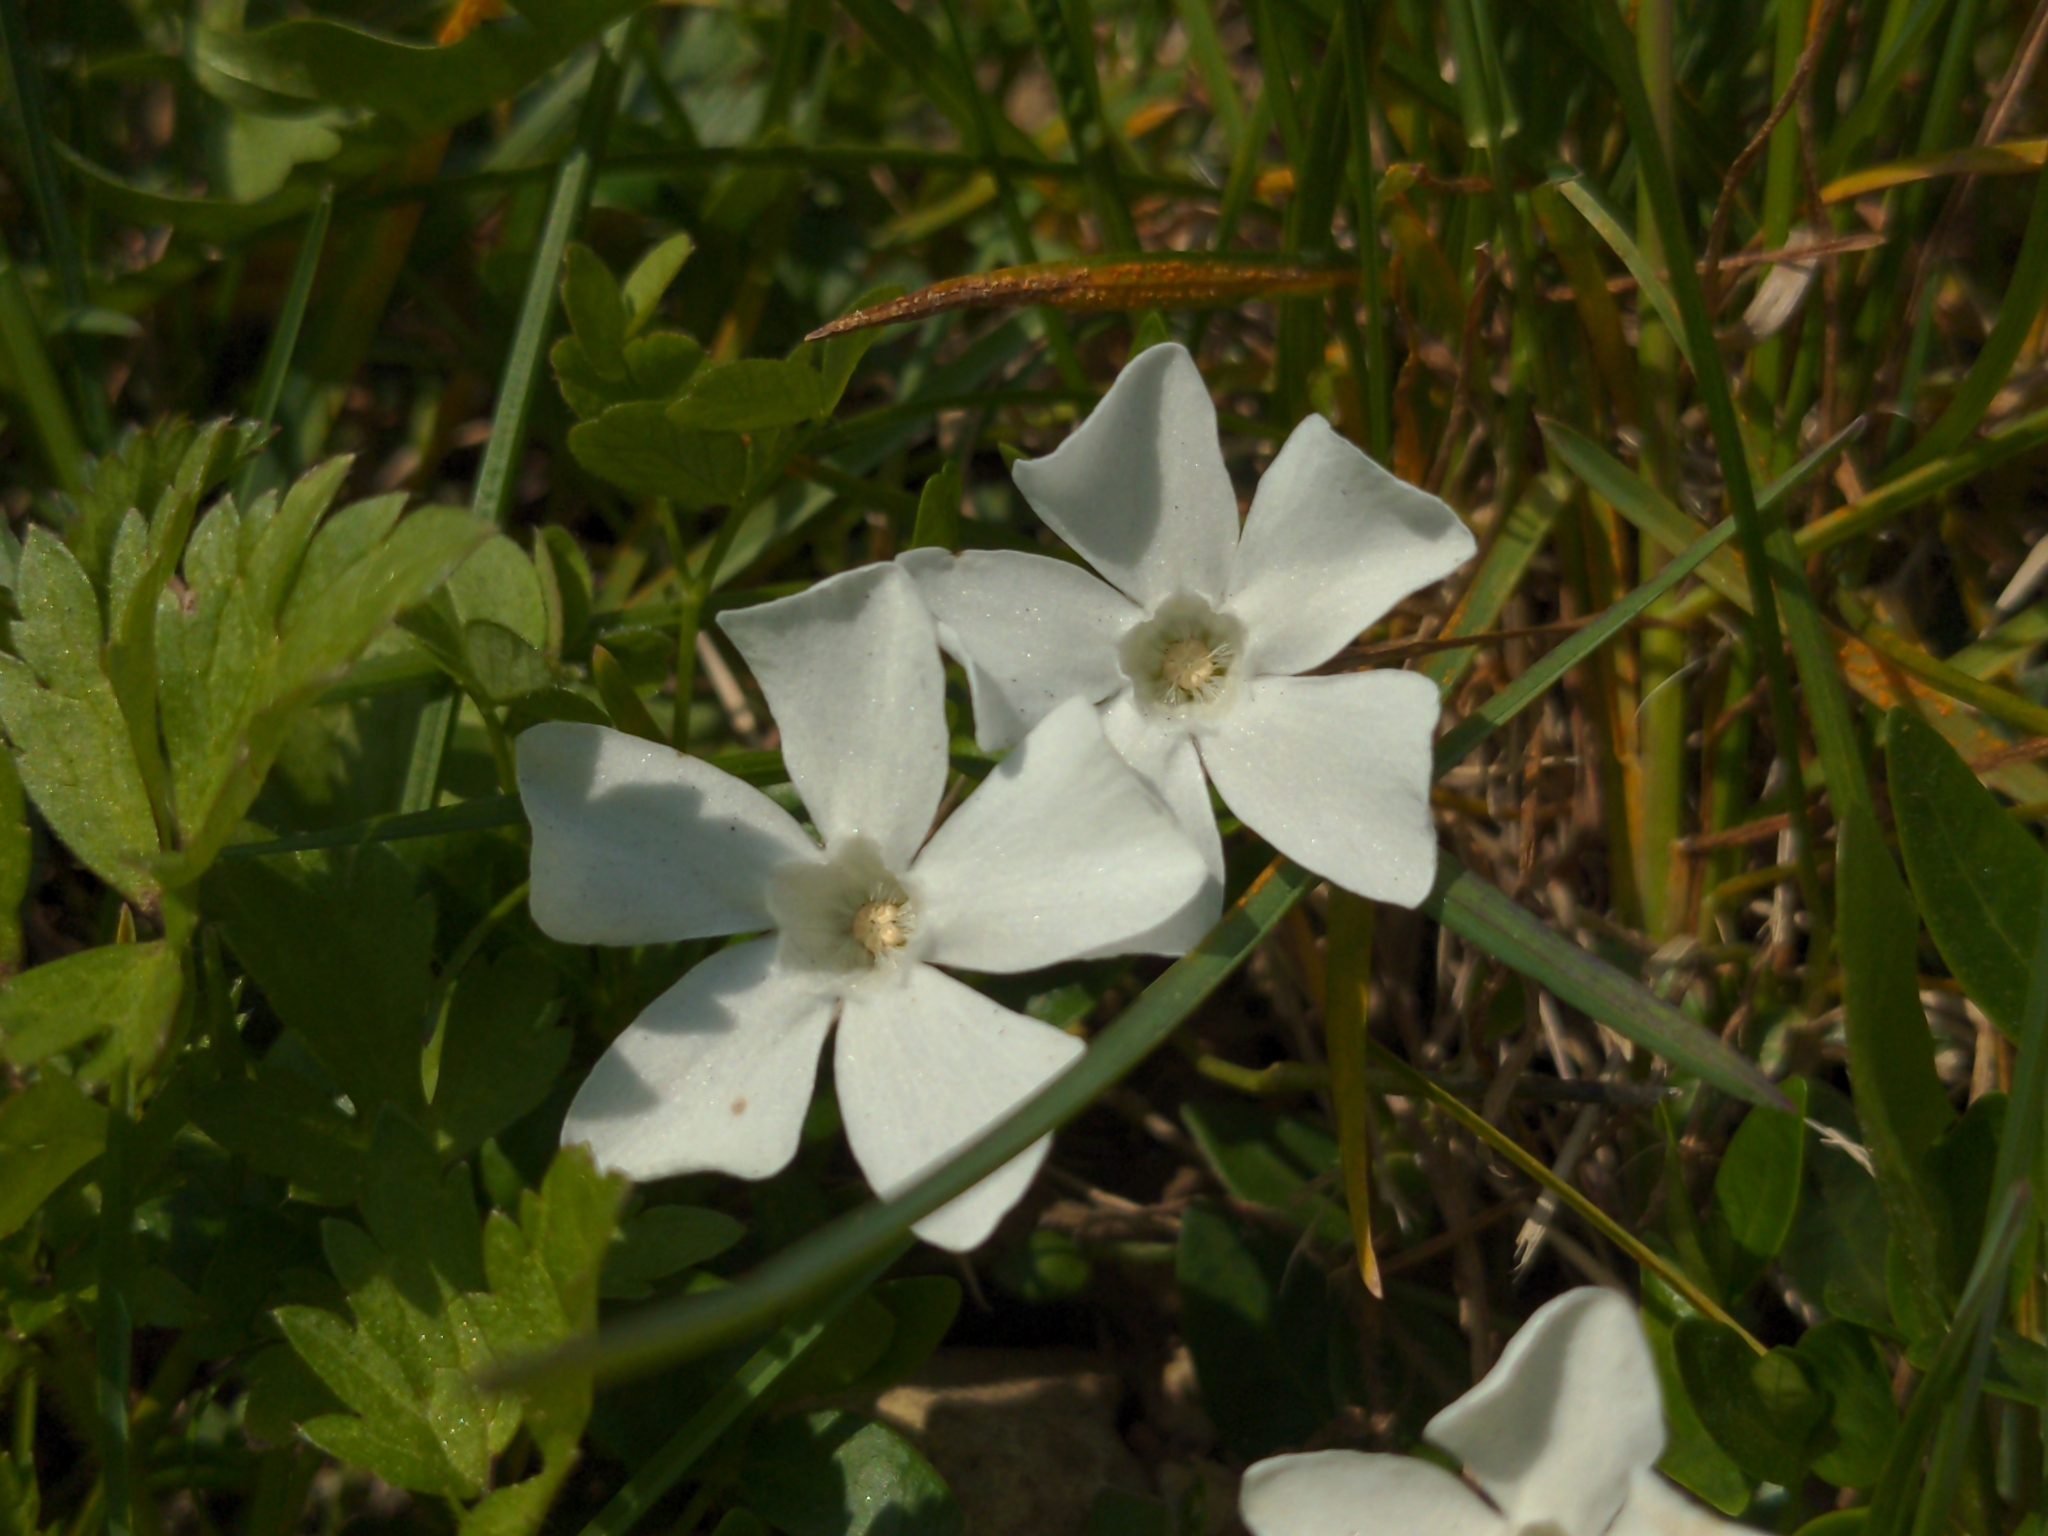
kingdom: Plantae
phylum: Tracheophyta
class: Magnoliopsida
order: Gentianales
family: Apocynaceae
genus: Vinca
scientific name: Vinca minor
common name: Lesser periwinkle
